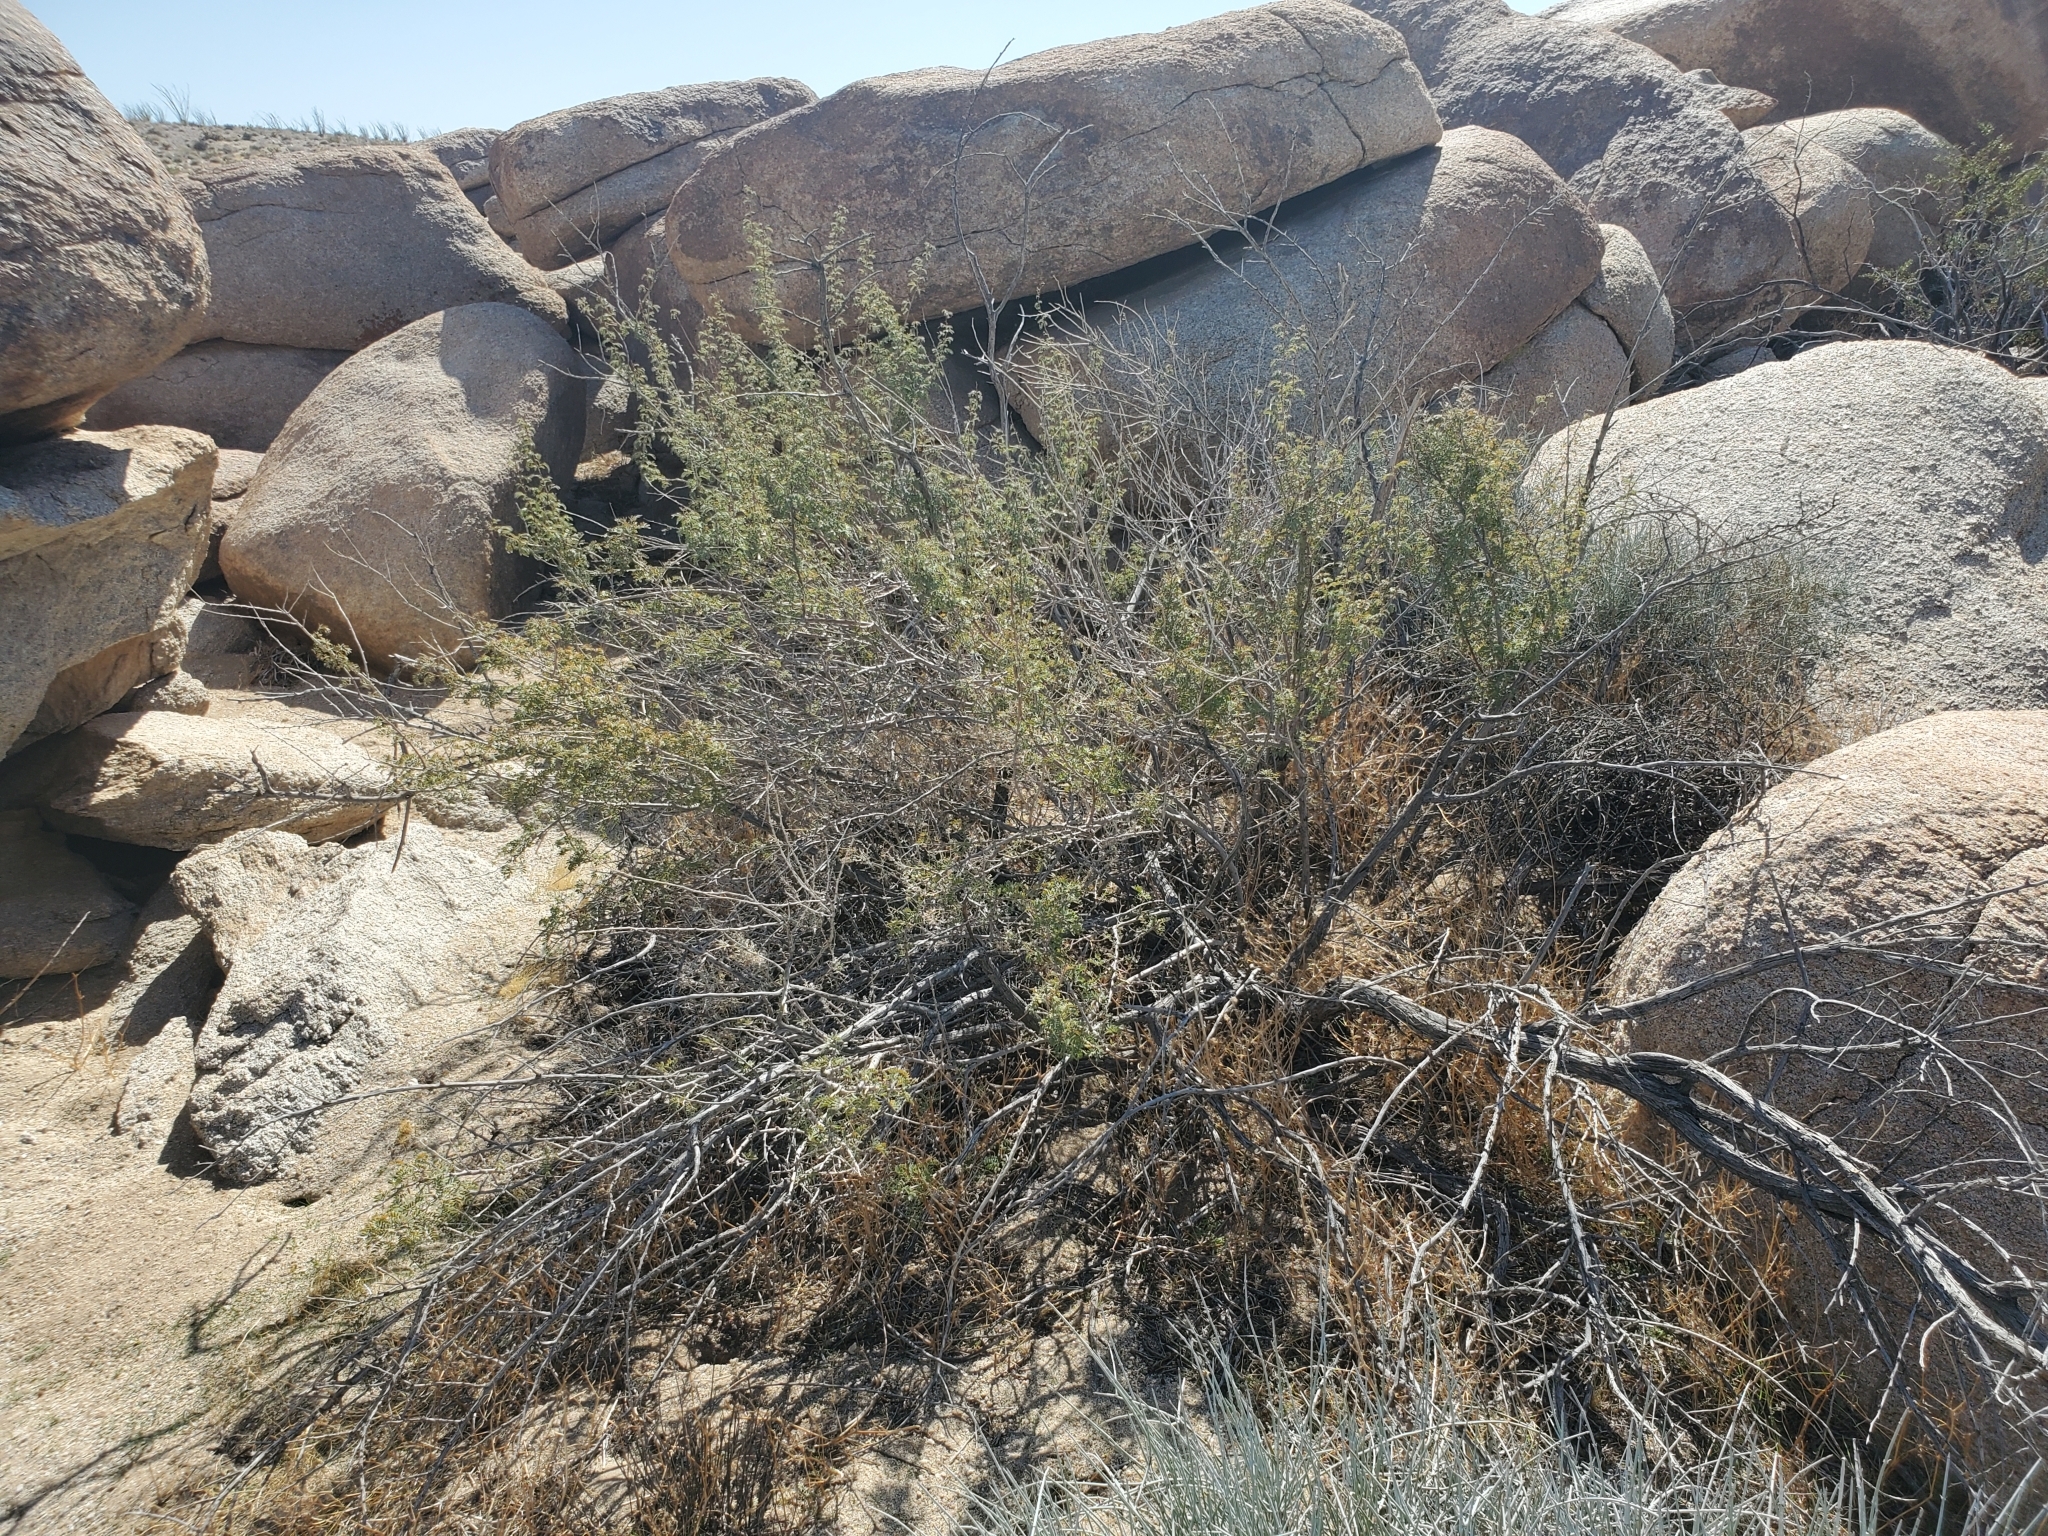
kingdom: Plantae
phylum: Tracheophyta
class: Magnoliopsida
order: Fabales
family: Fabaceae
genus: Senegalia
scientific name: Senegalia greggii
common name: Texas-mimosa
